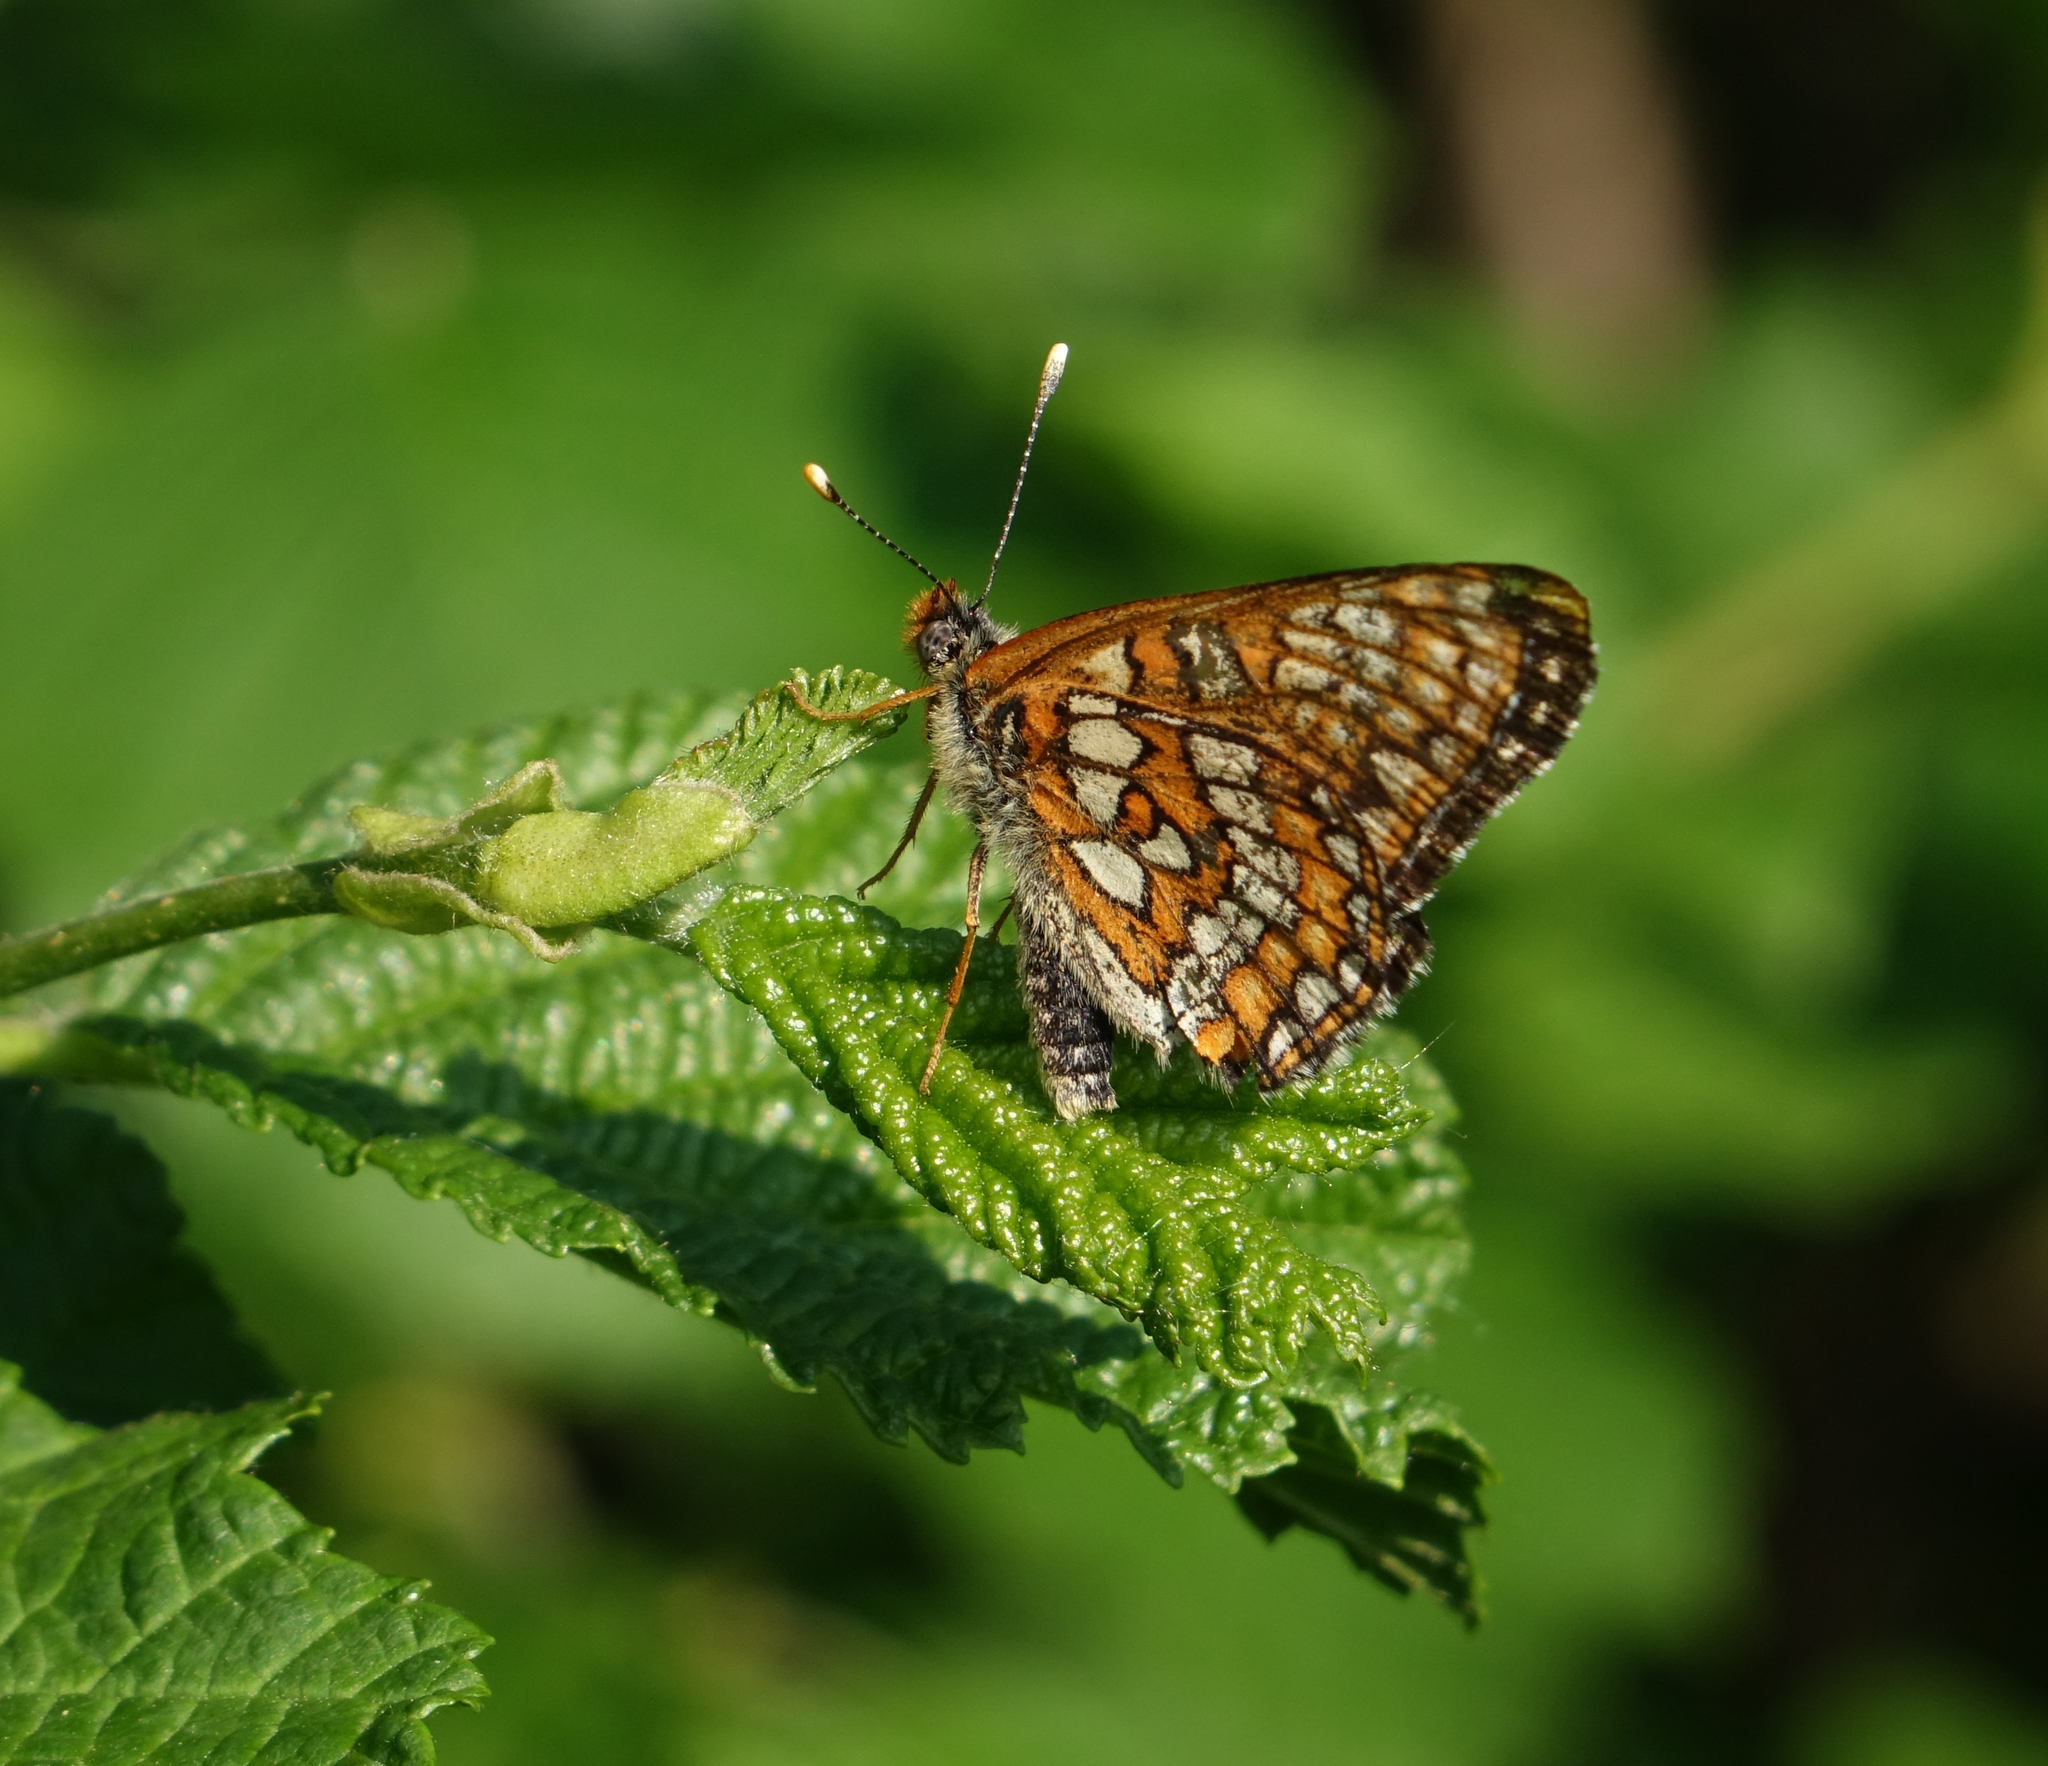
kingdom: Animalia
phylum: Arthropoda
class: Insecta
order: Lepidoptera
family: Nymphalidae
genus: Euphydryas
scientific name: Euphydryas maturna
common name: Scarce fritillary
